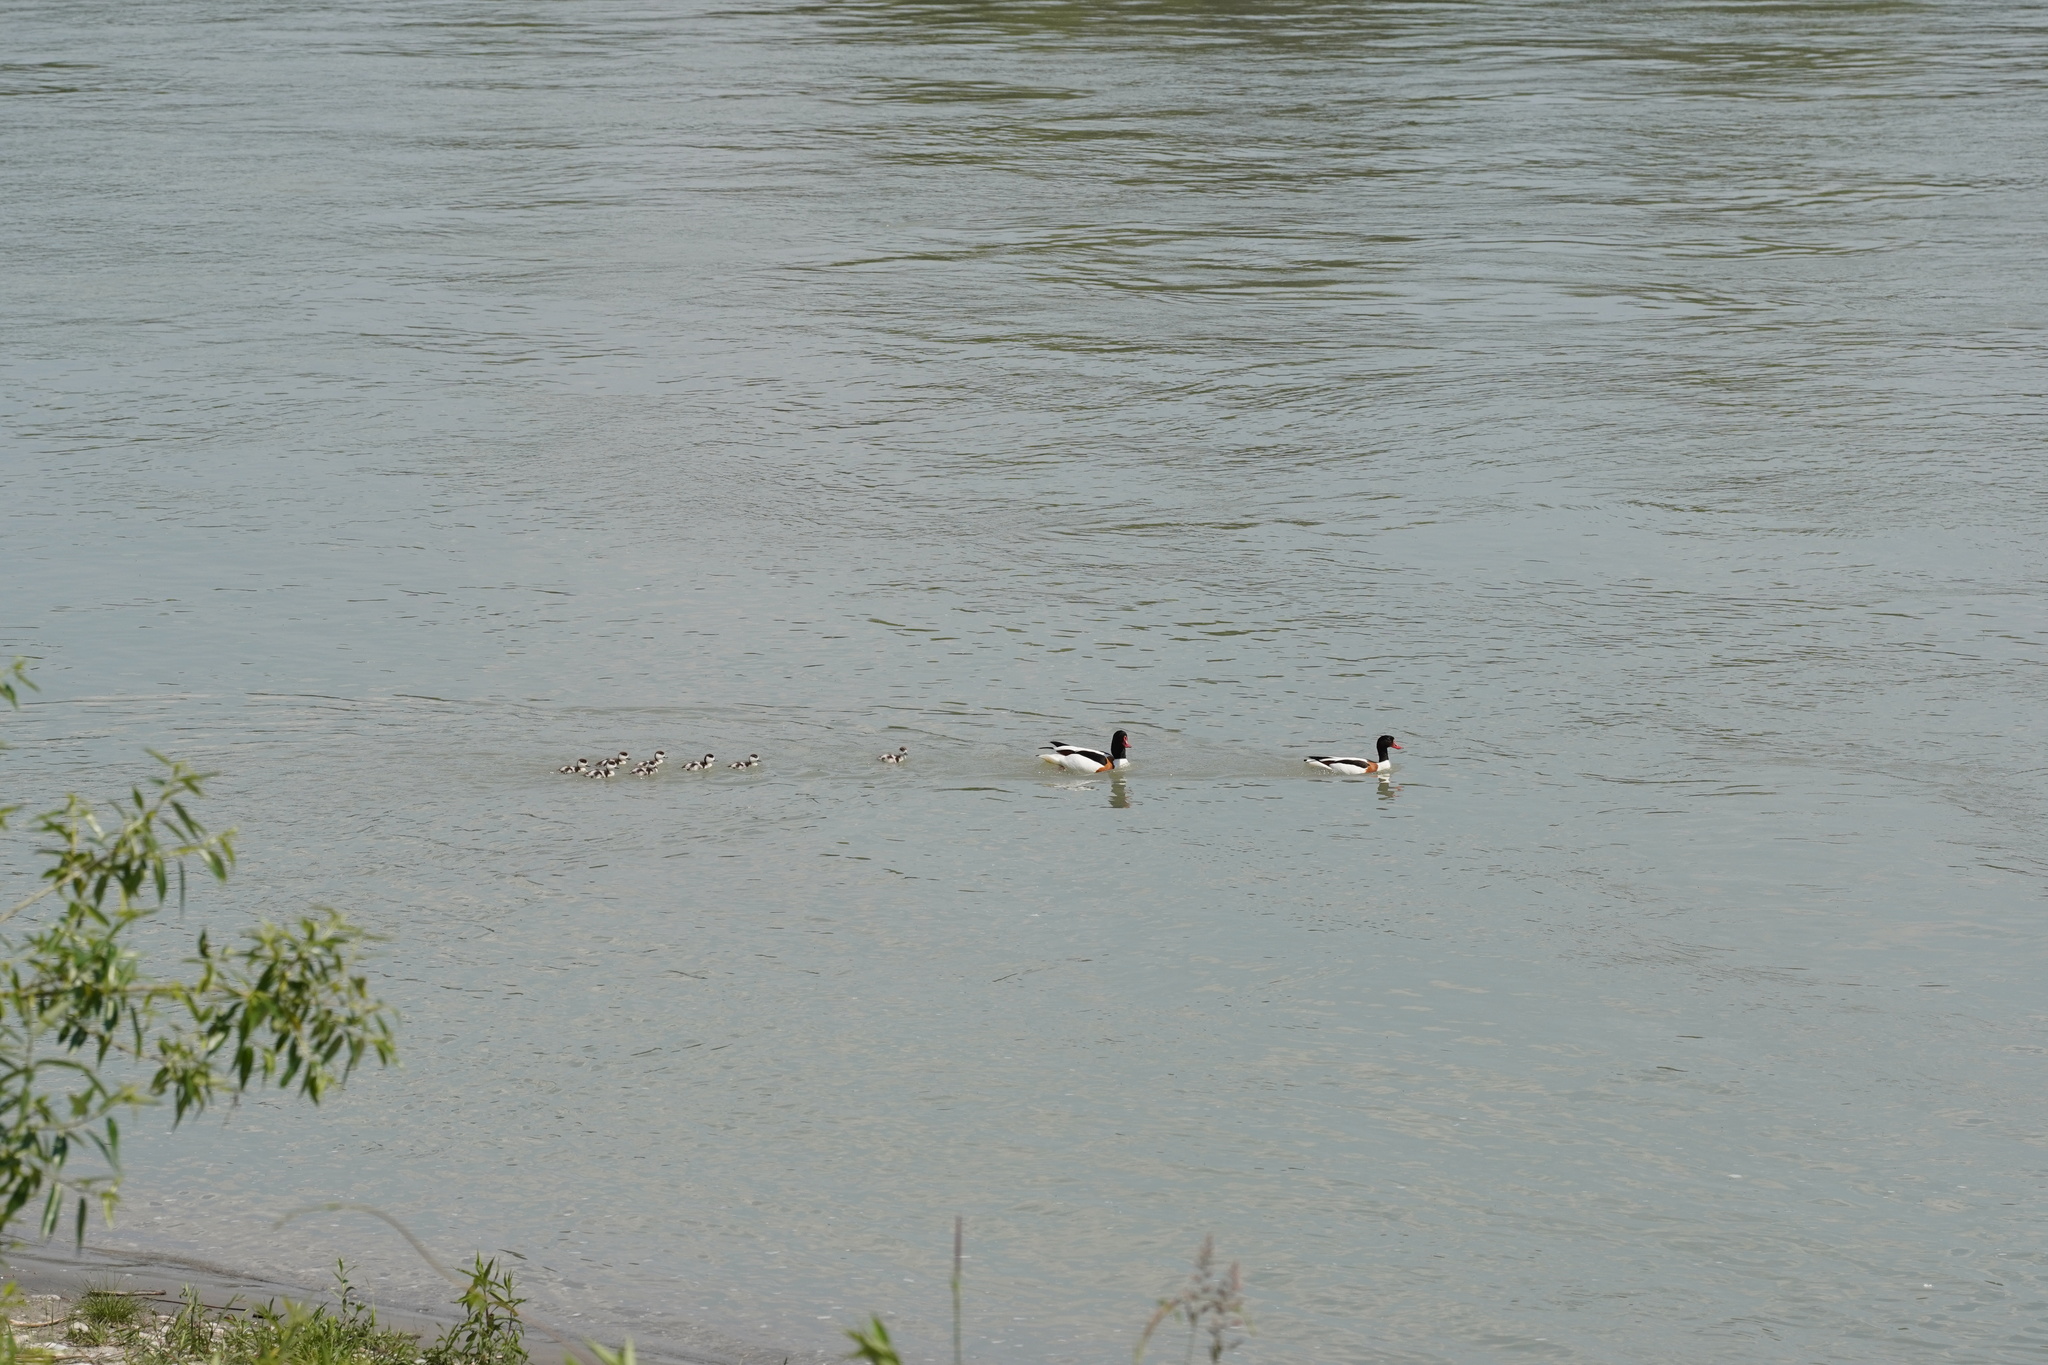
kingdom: Animalia
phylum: Chordata
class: Aves
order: Anseriformes
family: Anatidae
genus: Tadorna
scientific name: Tadorna tadorna
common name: Common shelduck
